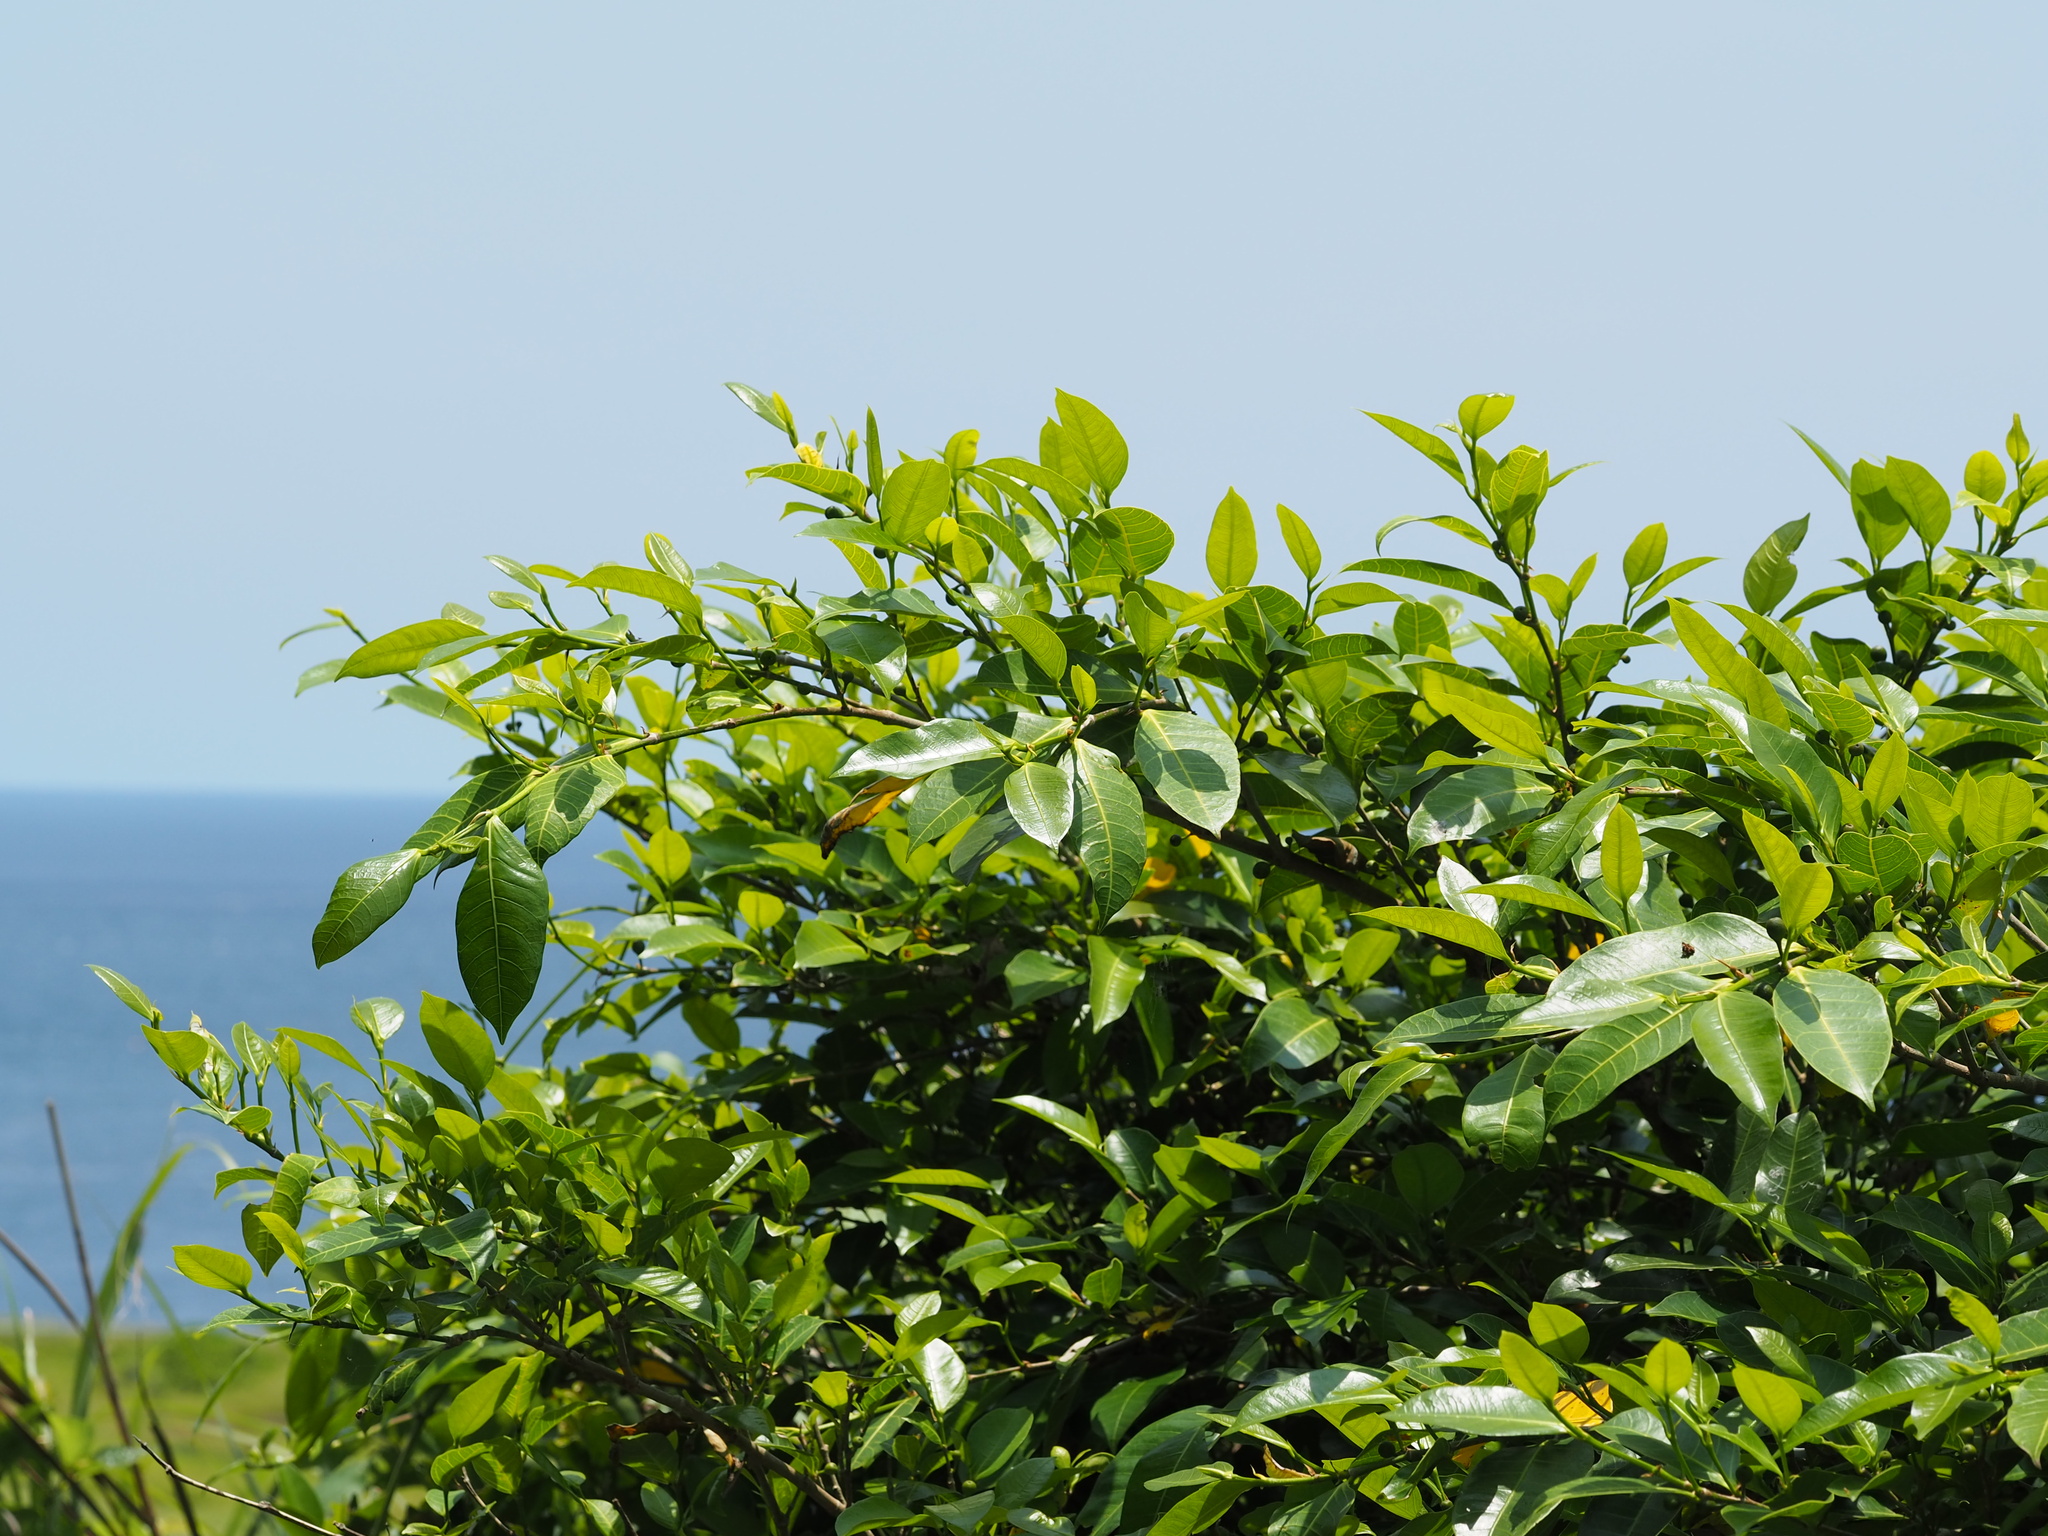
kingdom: Plantae
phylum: Tracheophyta
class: Magnoliopsida
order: Rosales
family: Moraceae
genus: Ficus
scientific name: Ficus virgata
